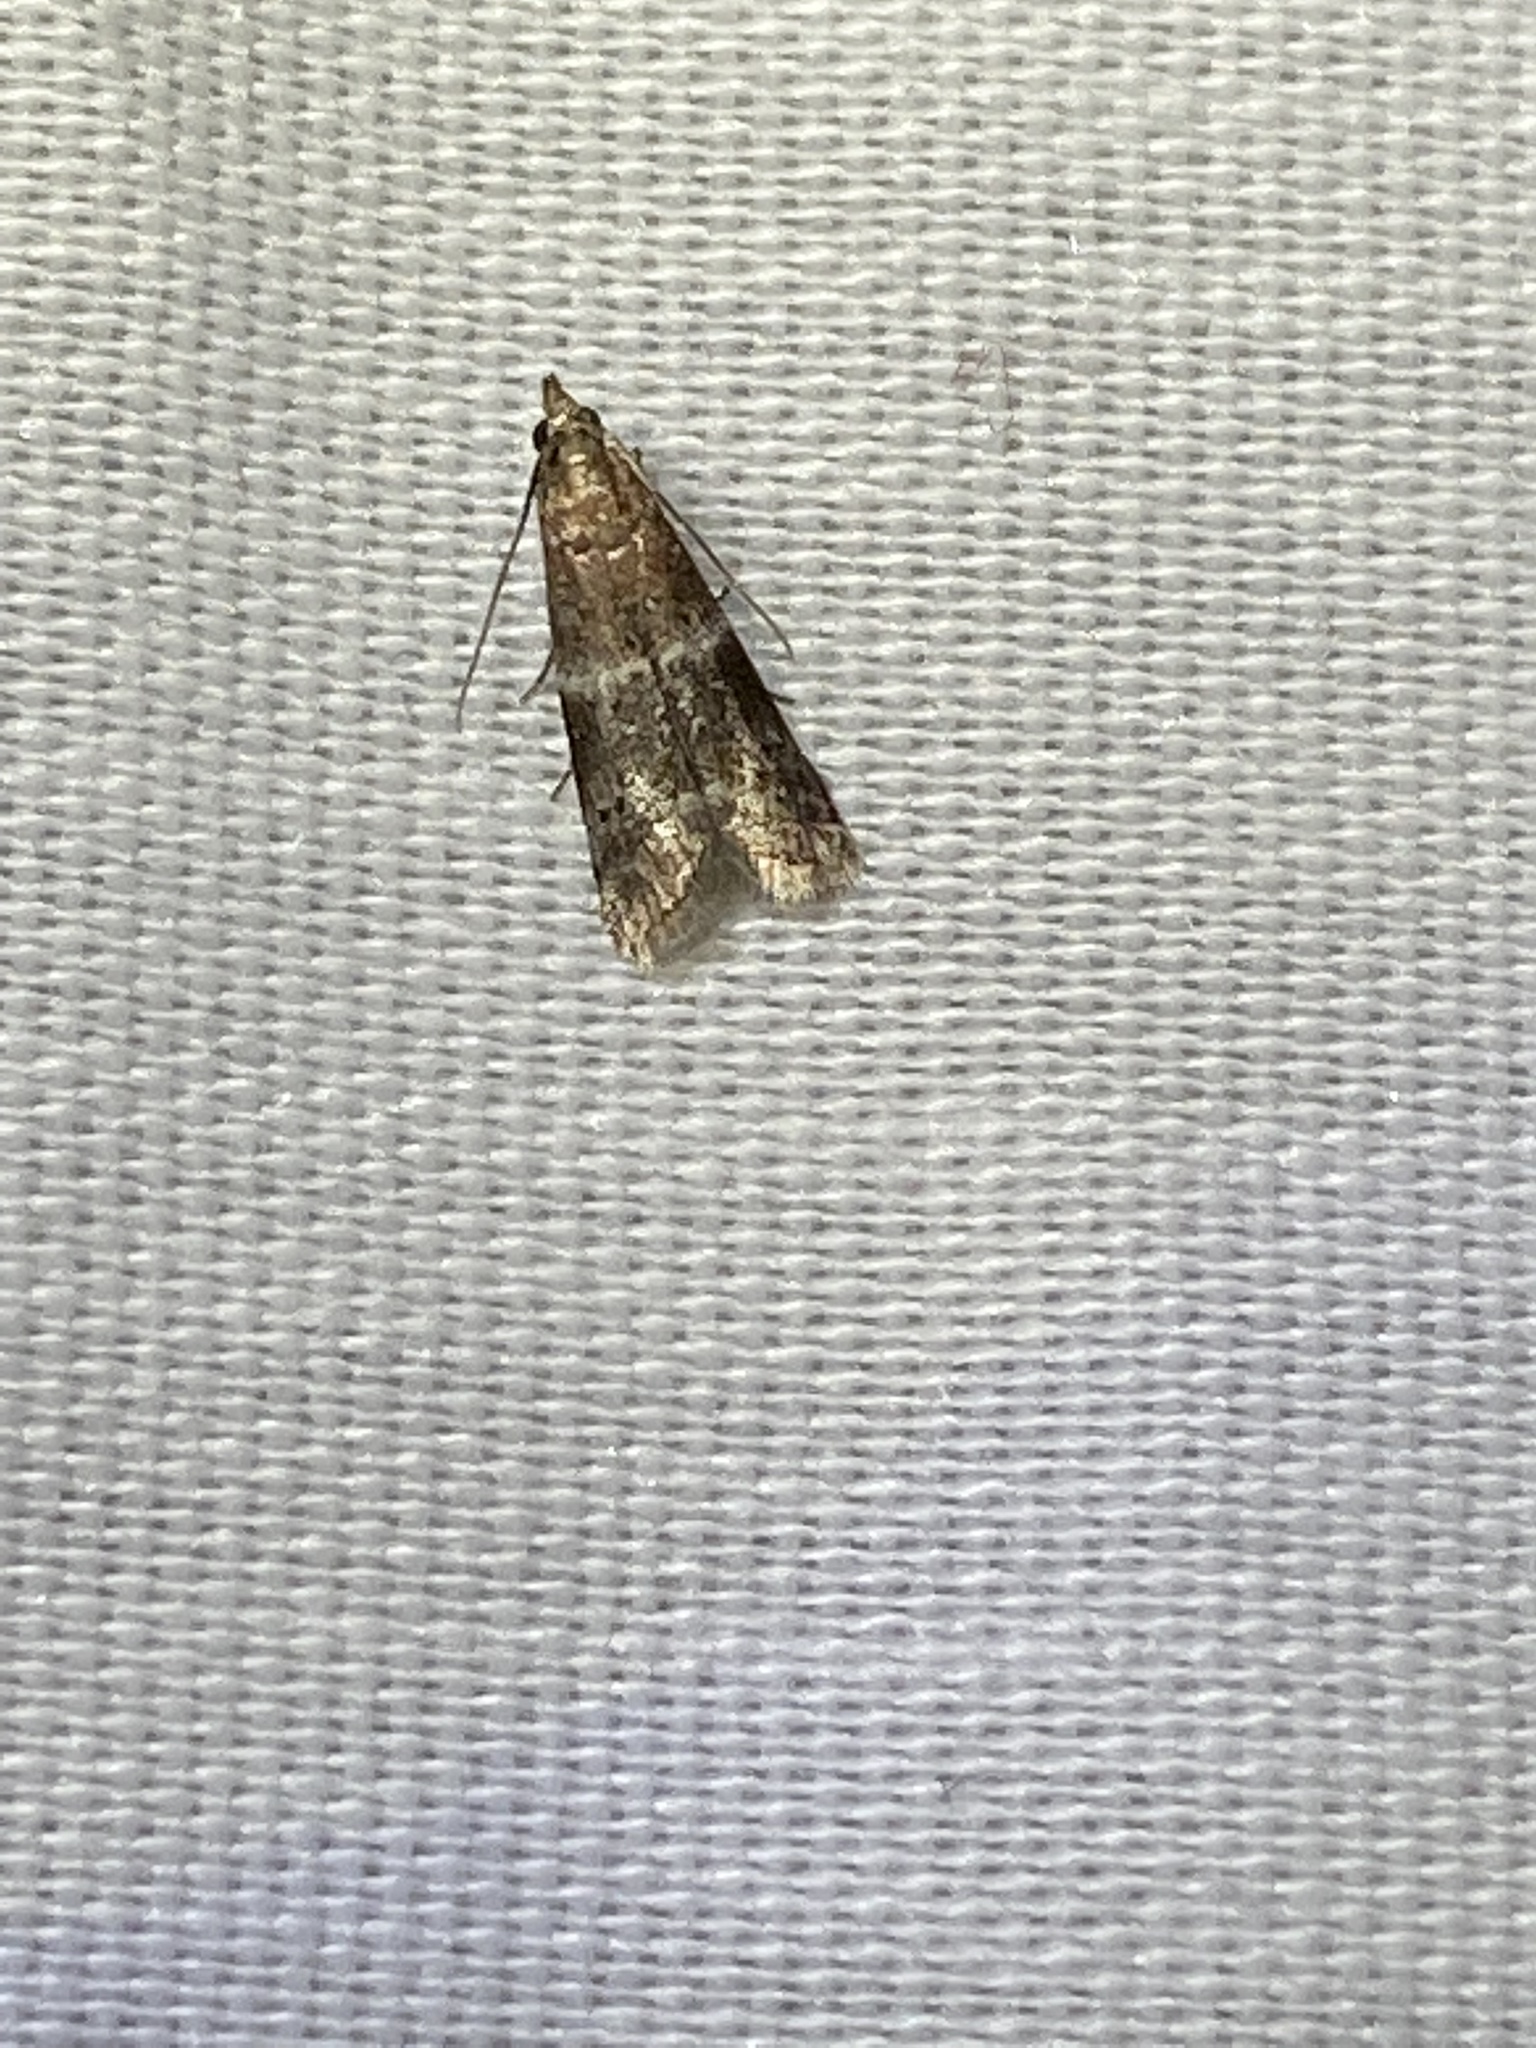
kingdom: Animalia
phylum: Arthropoda
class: Insecta
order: Lepidoptera
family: Pyralidae
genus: Moodna
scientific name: Moodna ostrinella
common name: Darker moodna moth
